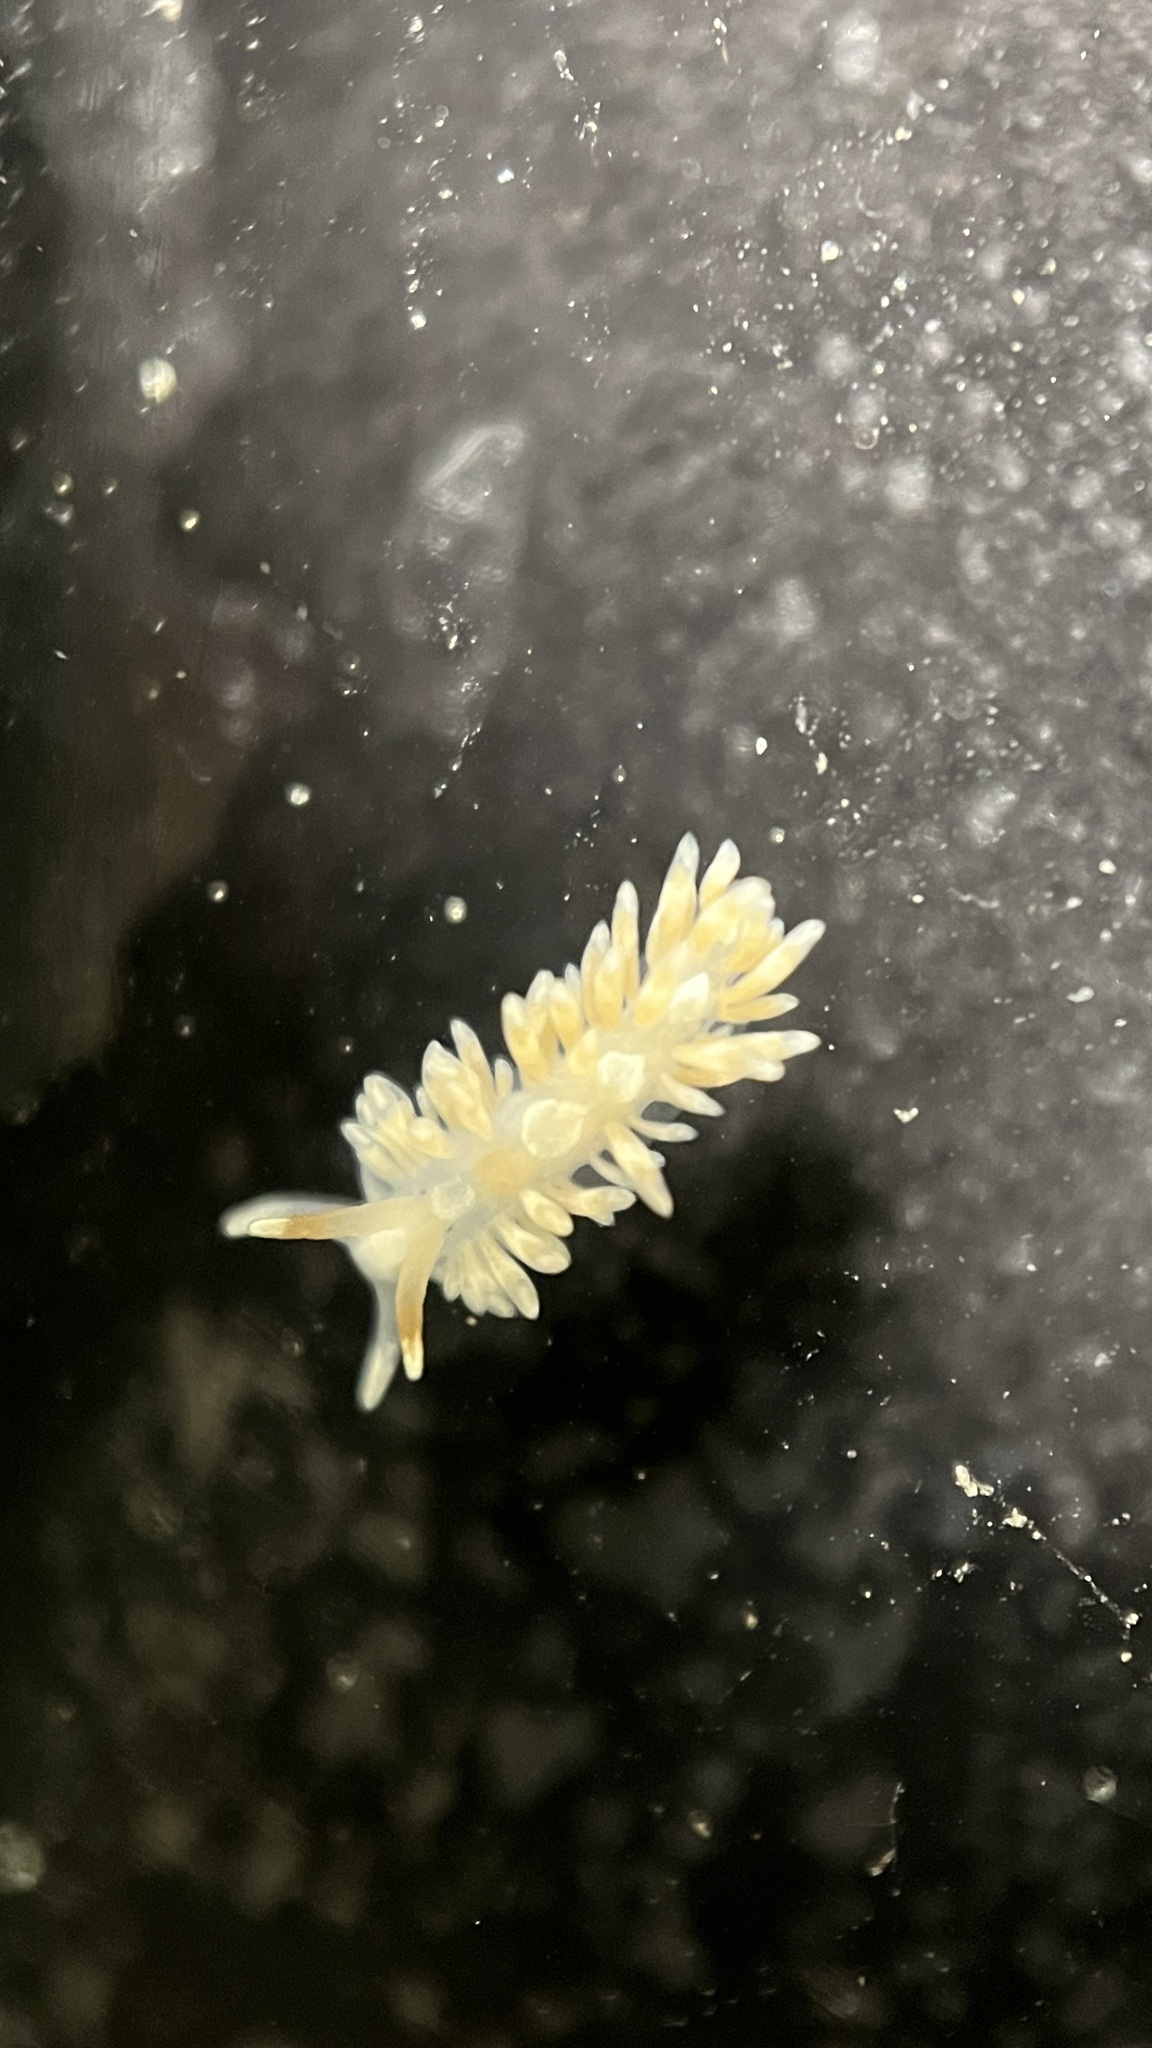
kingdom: Animalia
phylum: Mollusca
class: Gastropoda
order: Nudibranchia
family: Aeolidiidae
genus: Anteaeolidiella
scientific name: Anteaeolidiella lurana
